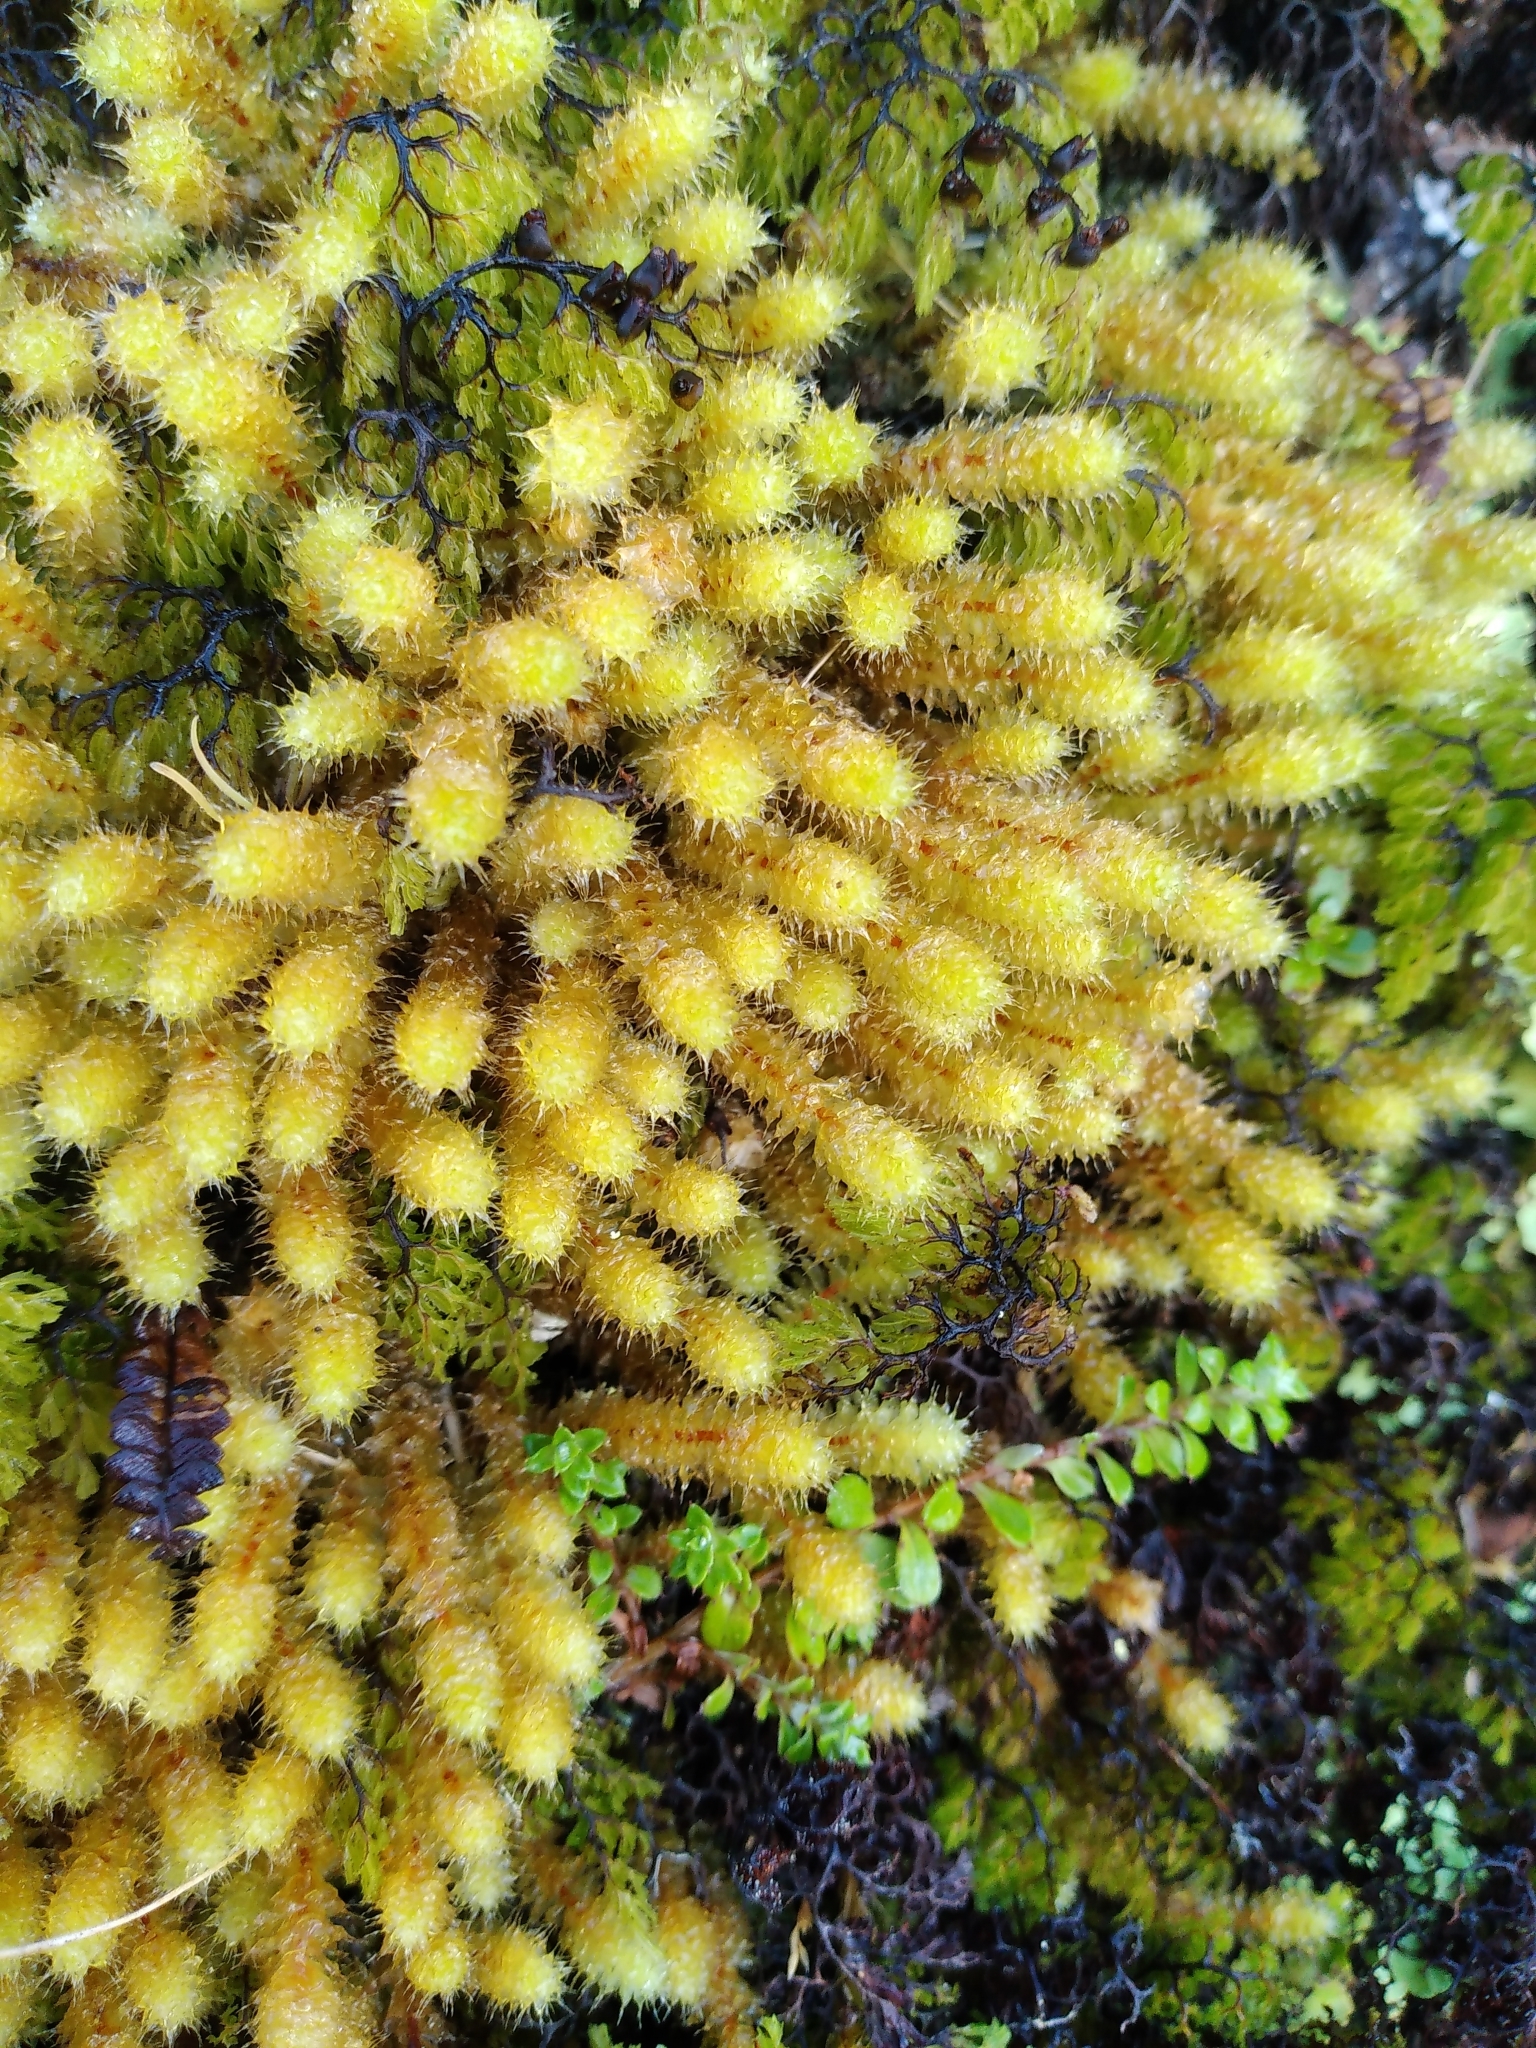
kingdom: Plantae
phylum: Bryophyta
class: Bryopsida
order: Ptychomniales
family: Ptychomniaceae
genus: Ptychomnion
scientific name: Ptychomnion aciculare
